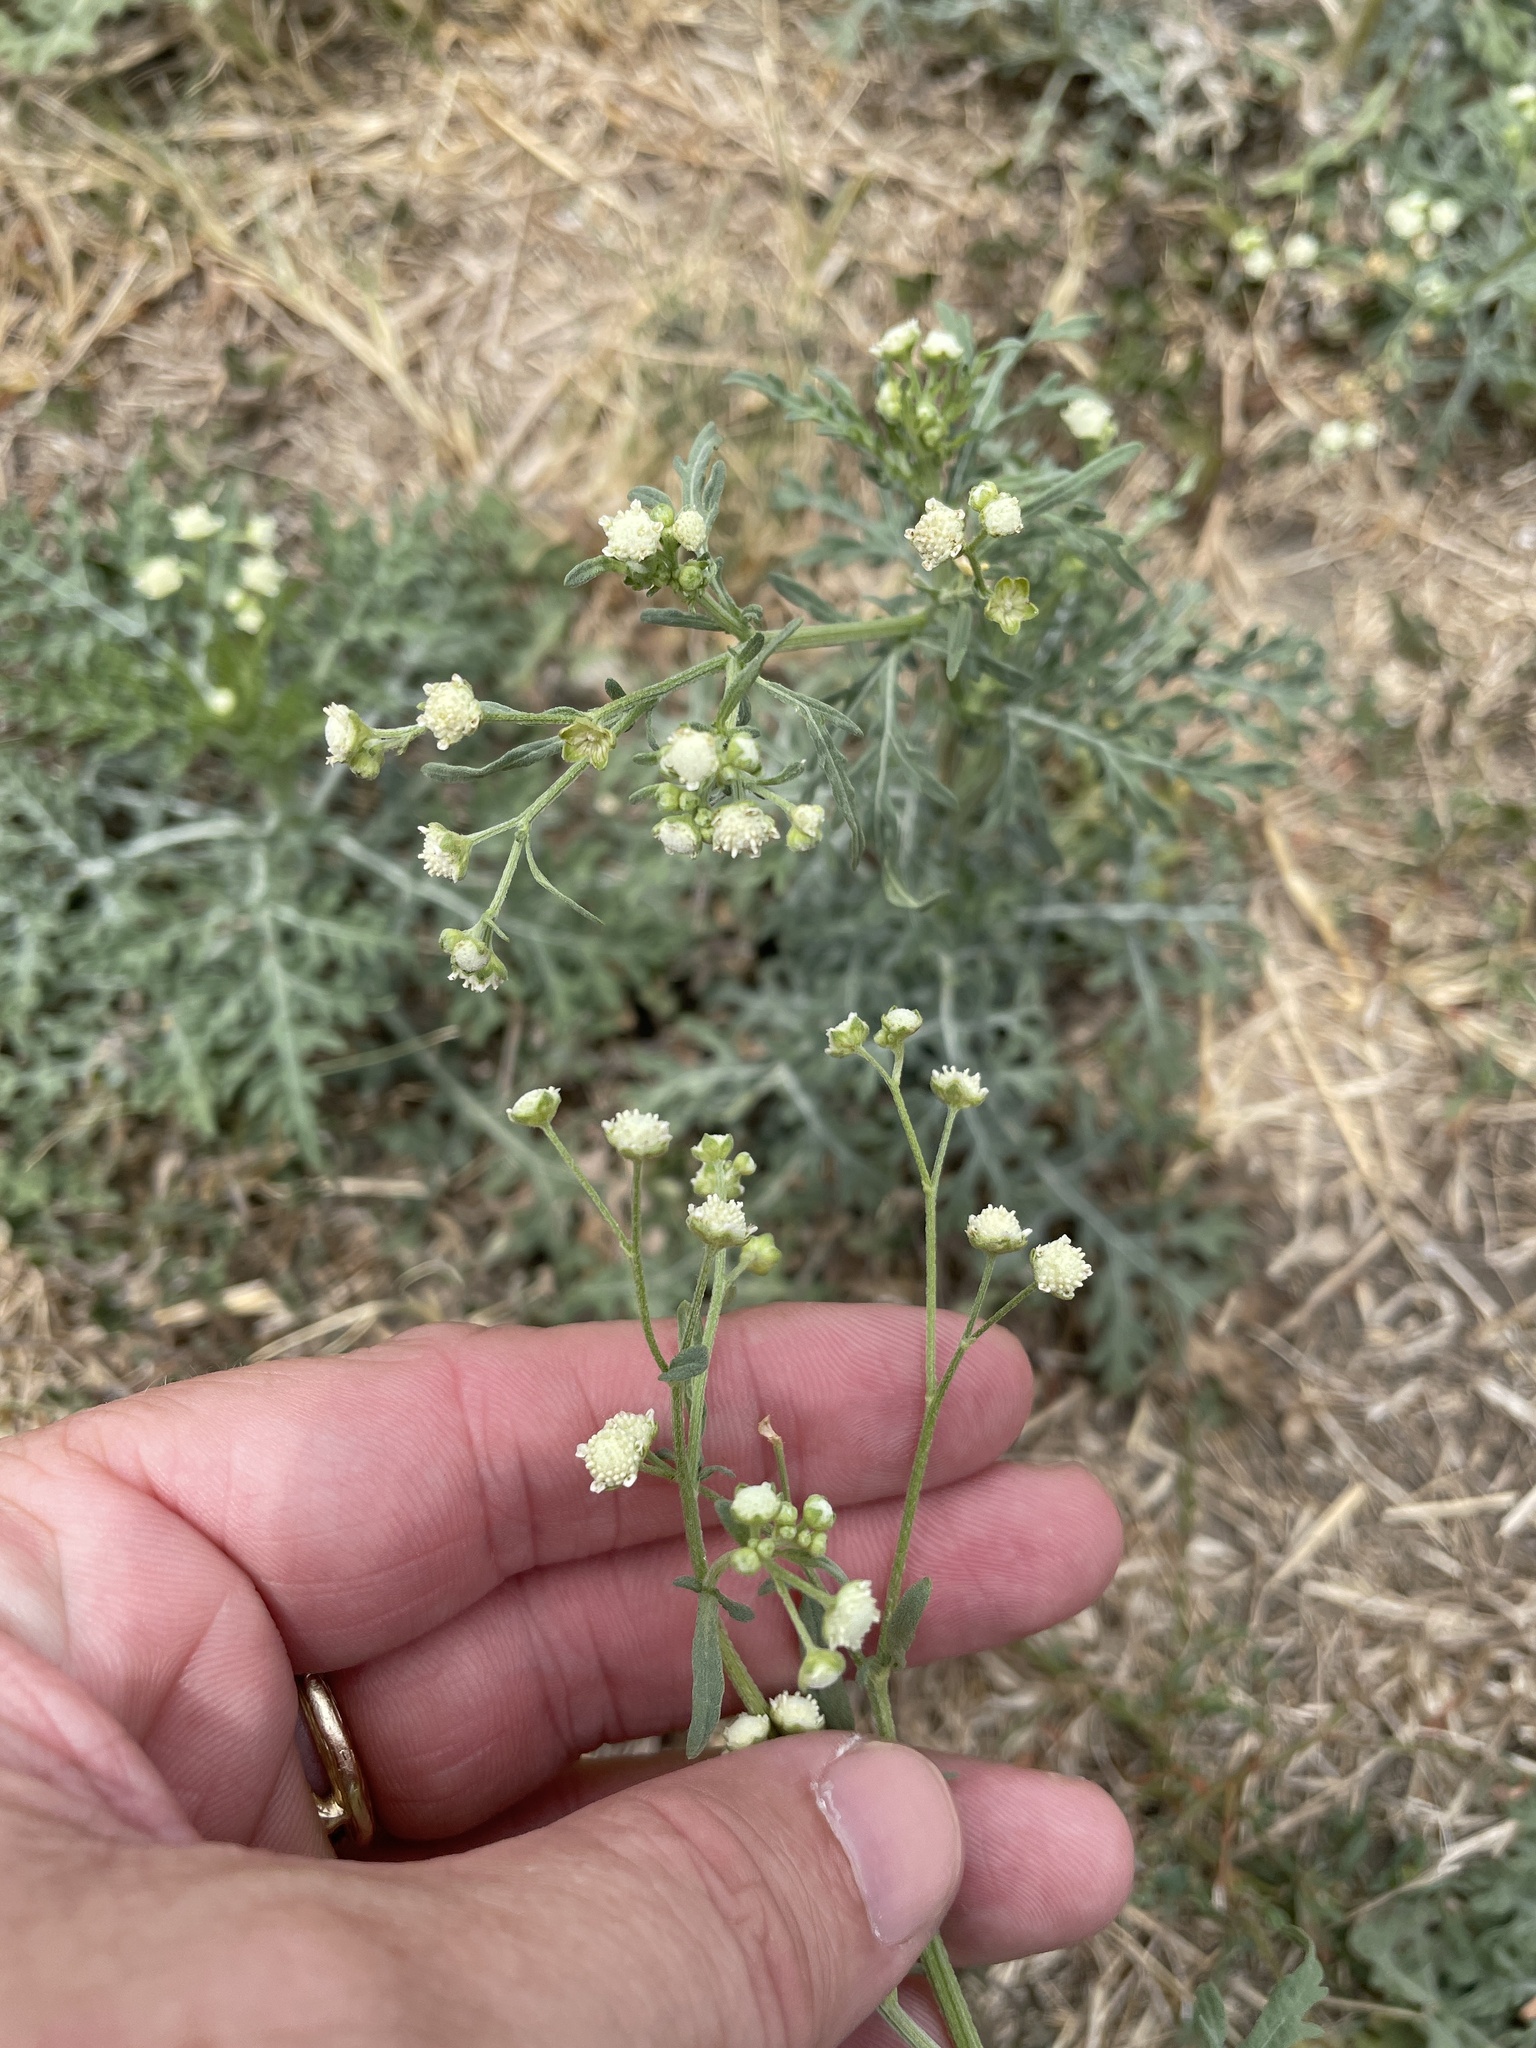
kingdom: Plantae
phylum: Tracheophyta
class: Magnoliopsida
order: Asterales
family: Asteraceae
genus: Parthenium
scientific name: Parthenium hysterophorus
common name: Santa maria feverfew
